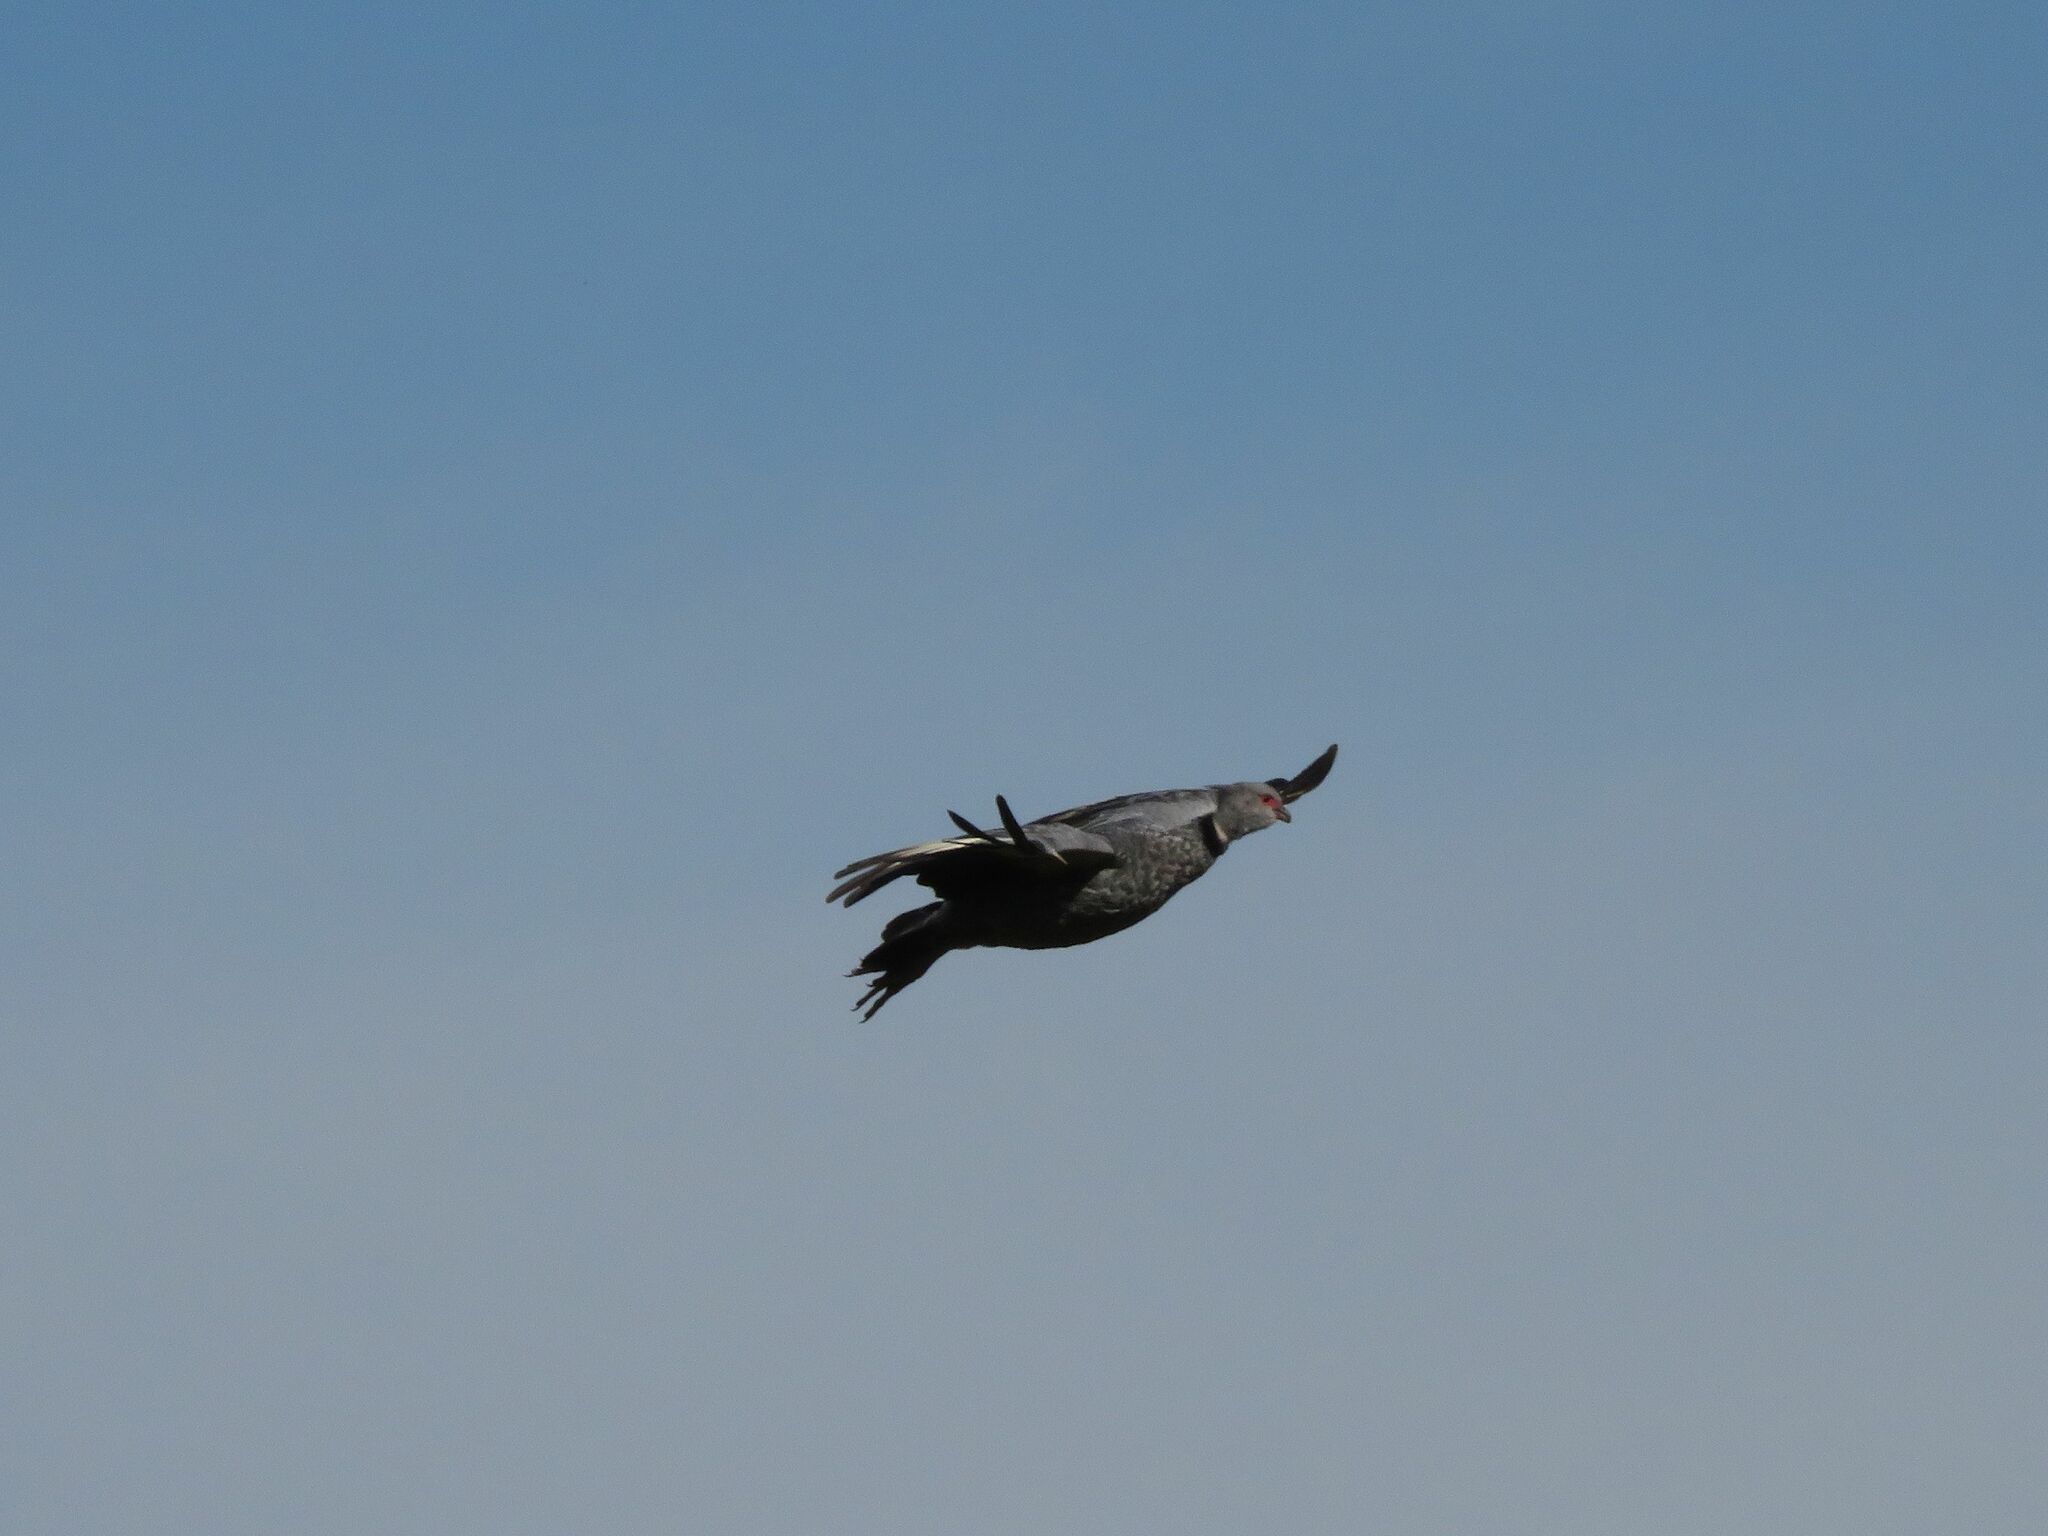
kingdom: Animalia
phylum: Chordata
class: Aves
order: Anseriformes
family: Anhimidae
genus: Chauna
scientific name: Chauna torquata
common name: Southern screamer
